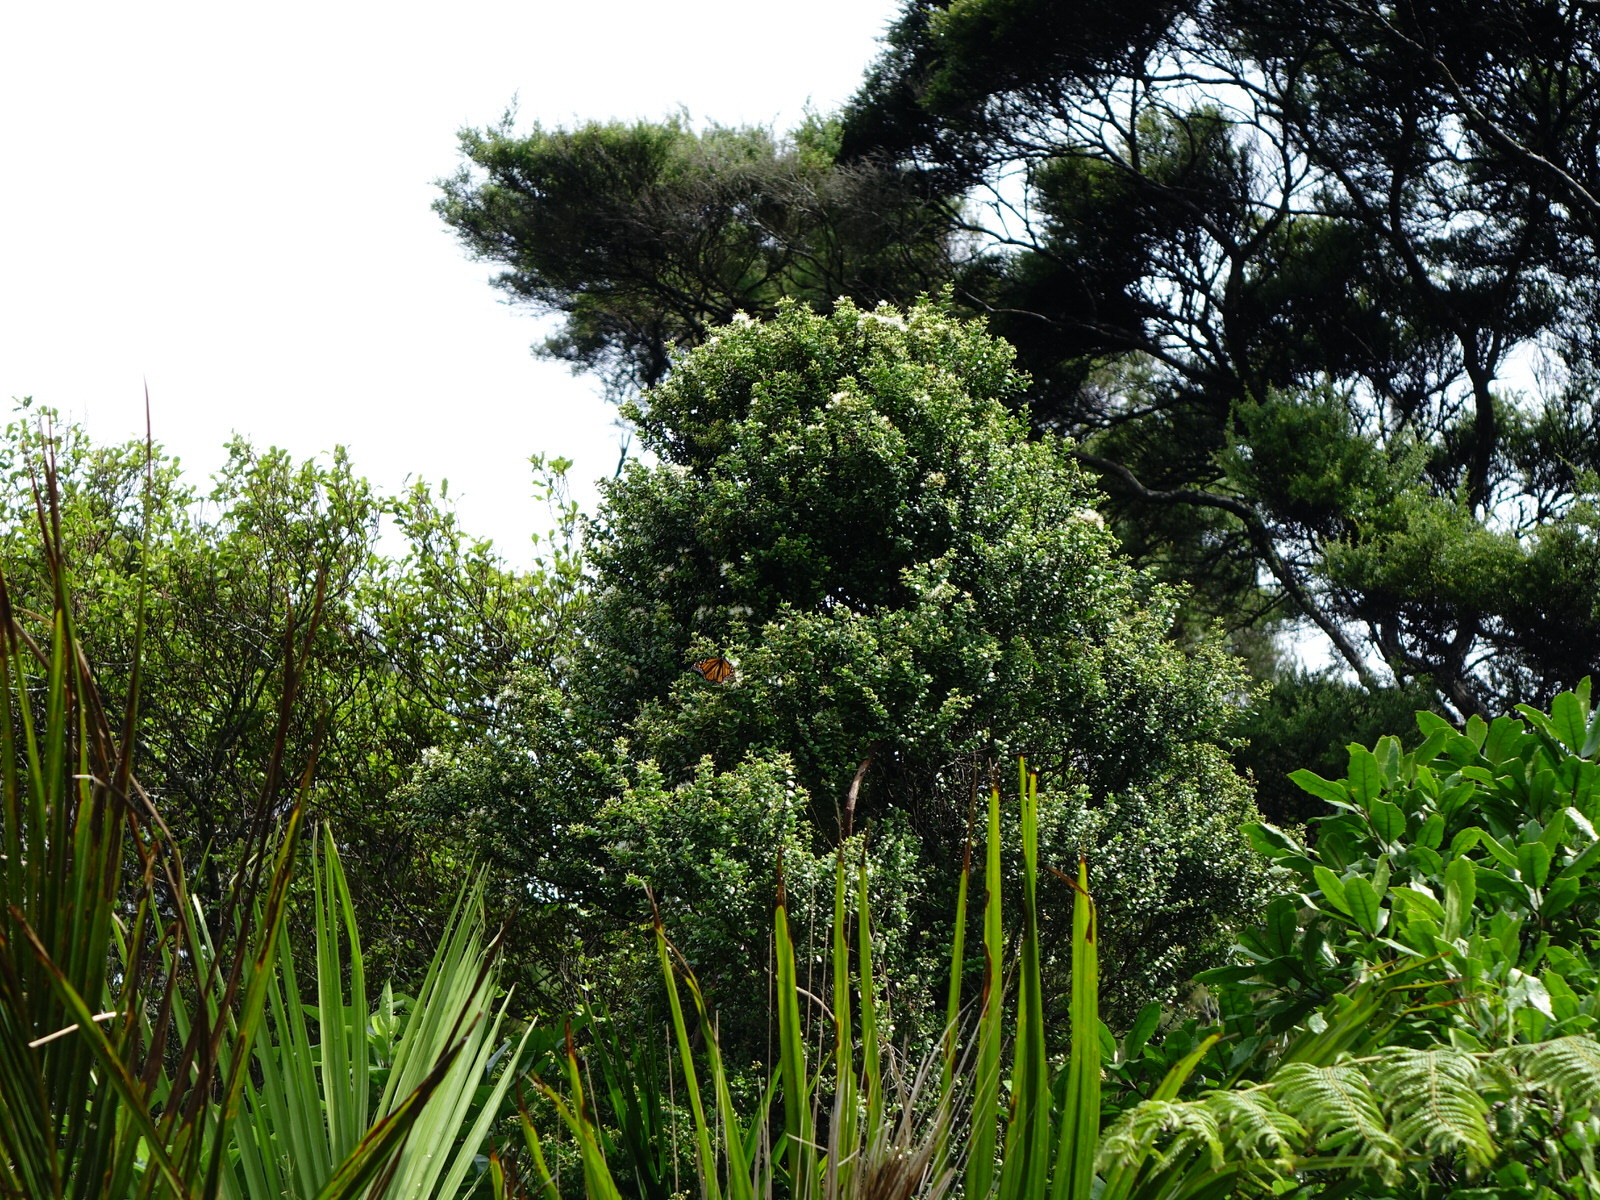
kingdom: Plantae
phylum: Tracheophyta
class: Magnoliopsida
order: Myrtales
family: Myrtaceae
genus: Metrosideros
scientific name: Metrosideros perforata
